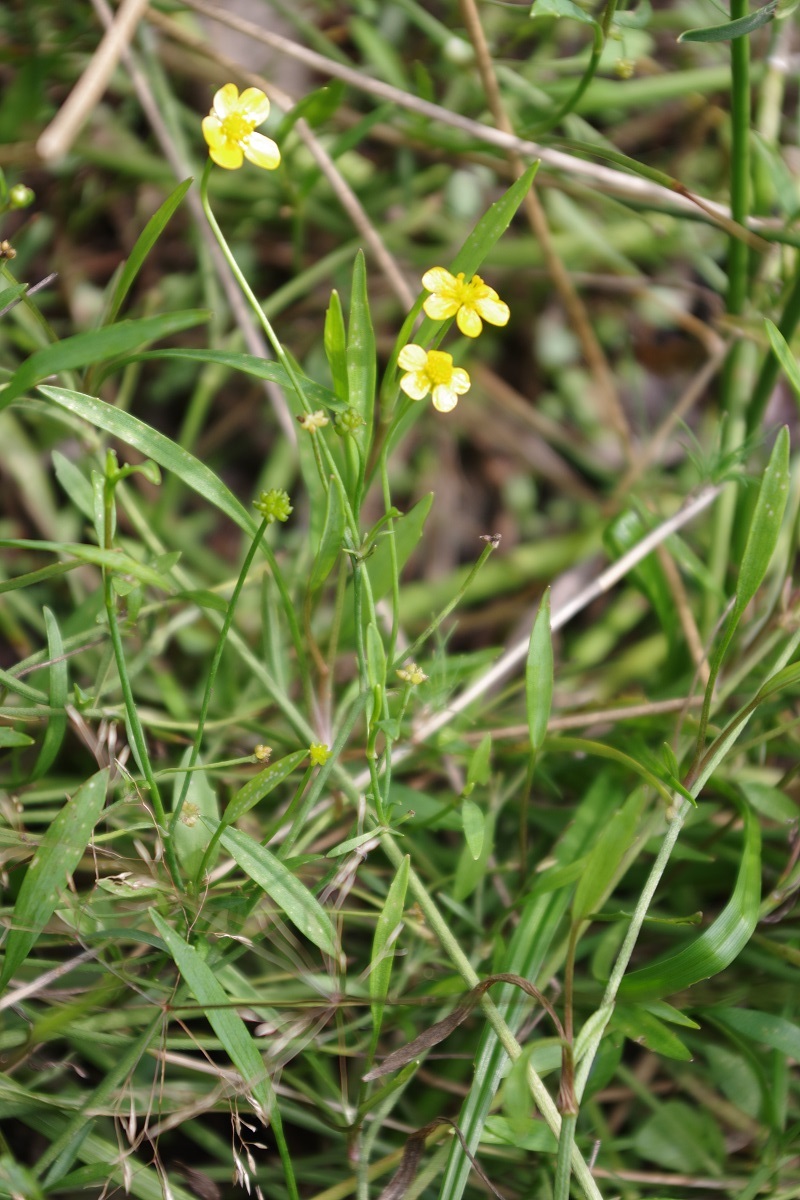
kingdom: Plantae
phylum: Tracheophyta
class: Magnoliopsida
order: Ranunculales
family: Ranunculaceae
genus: Ranunculus
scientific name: Ranunculus flammula
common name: Lesser spearwort
